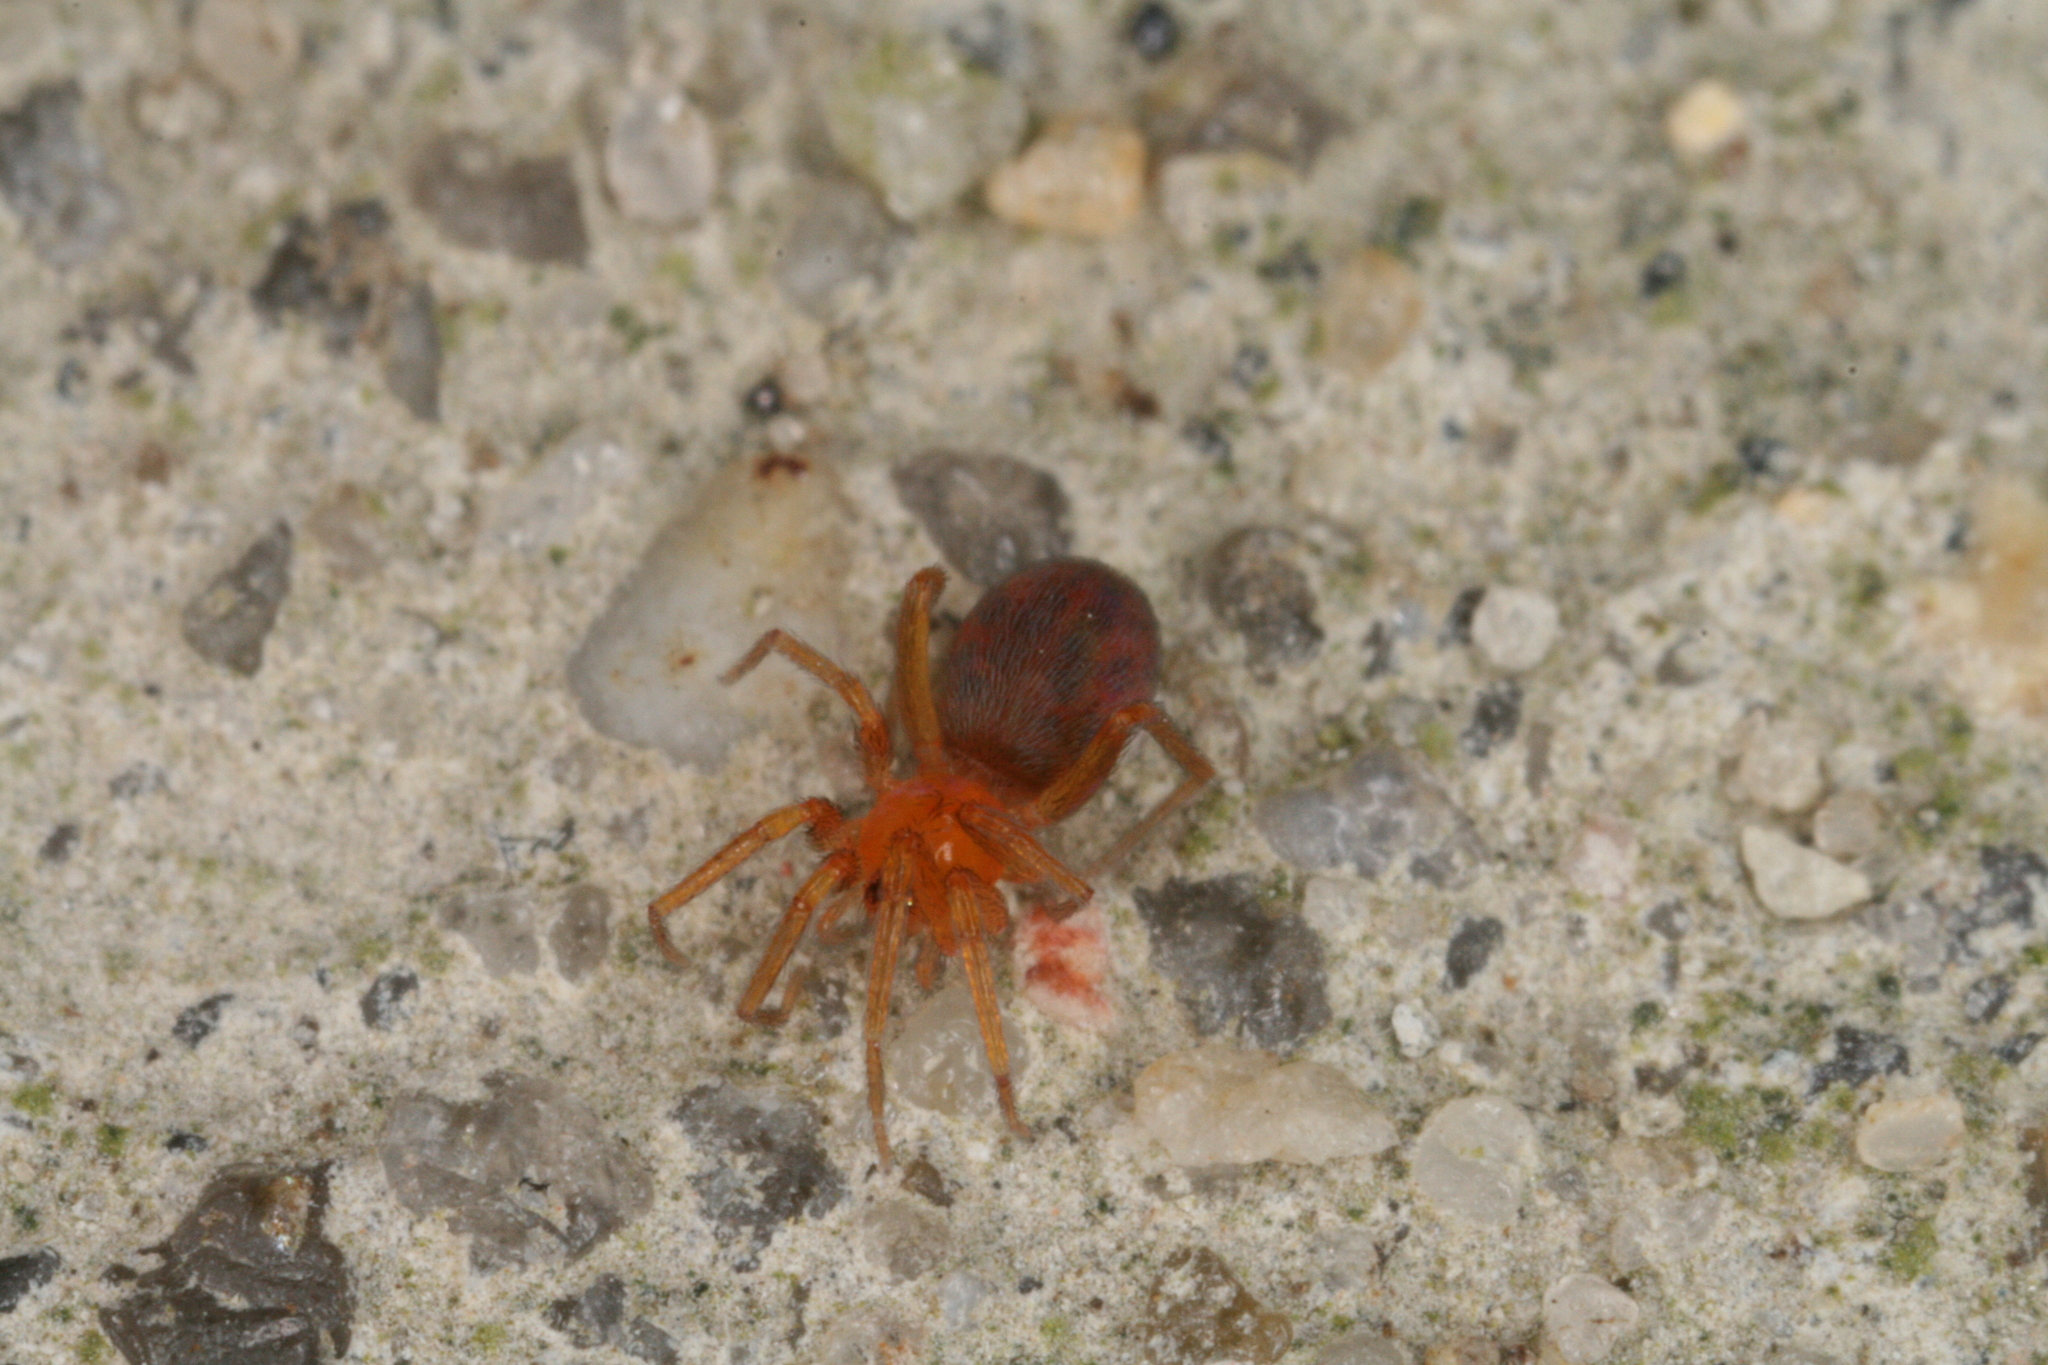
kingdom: Animalia
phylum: Arthropoda
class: Arachnida
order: Araneae
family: Oonopidae
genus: Oonops
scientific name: Oonops domesticus
